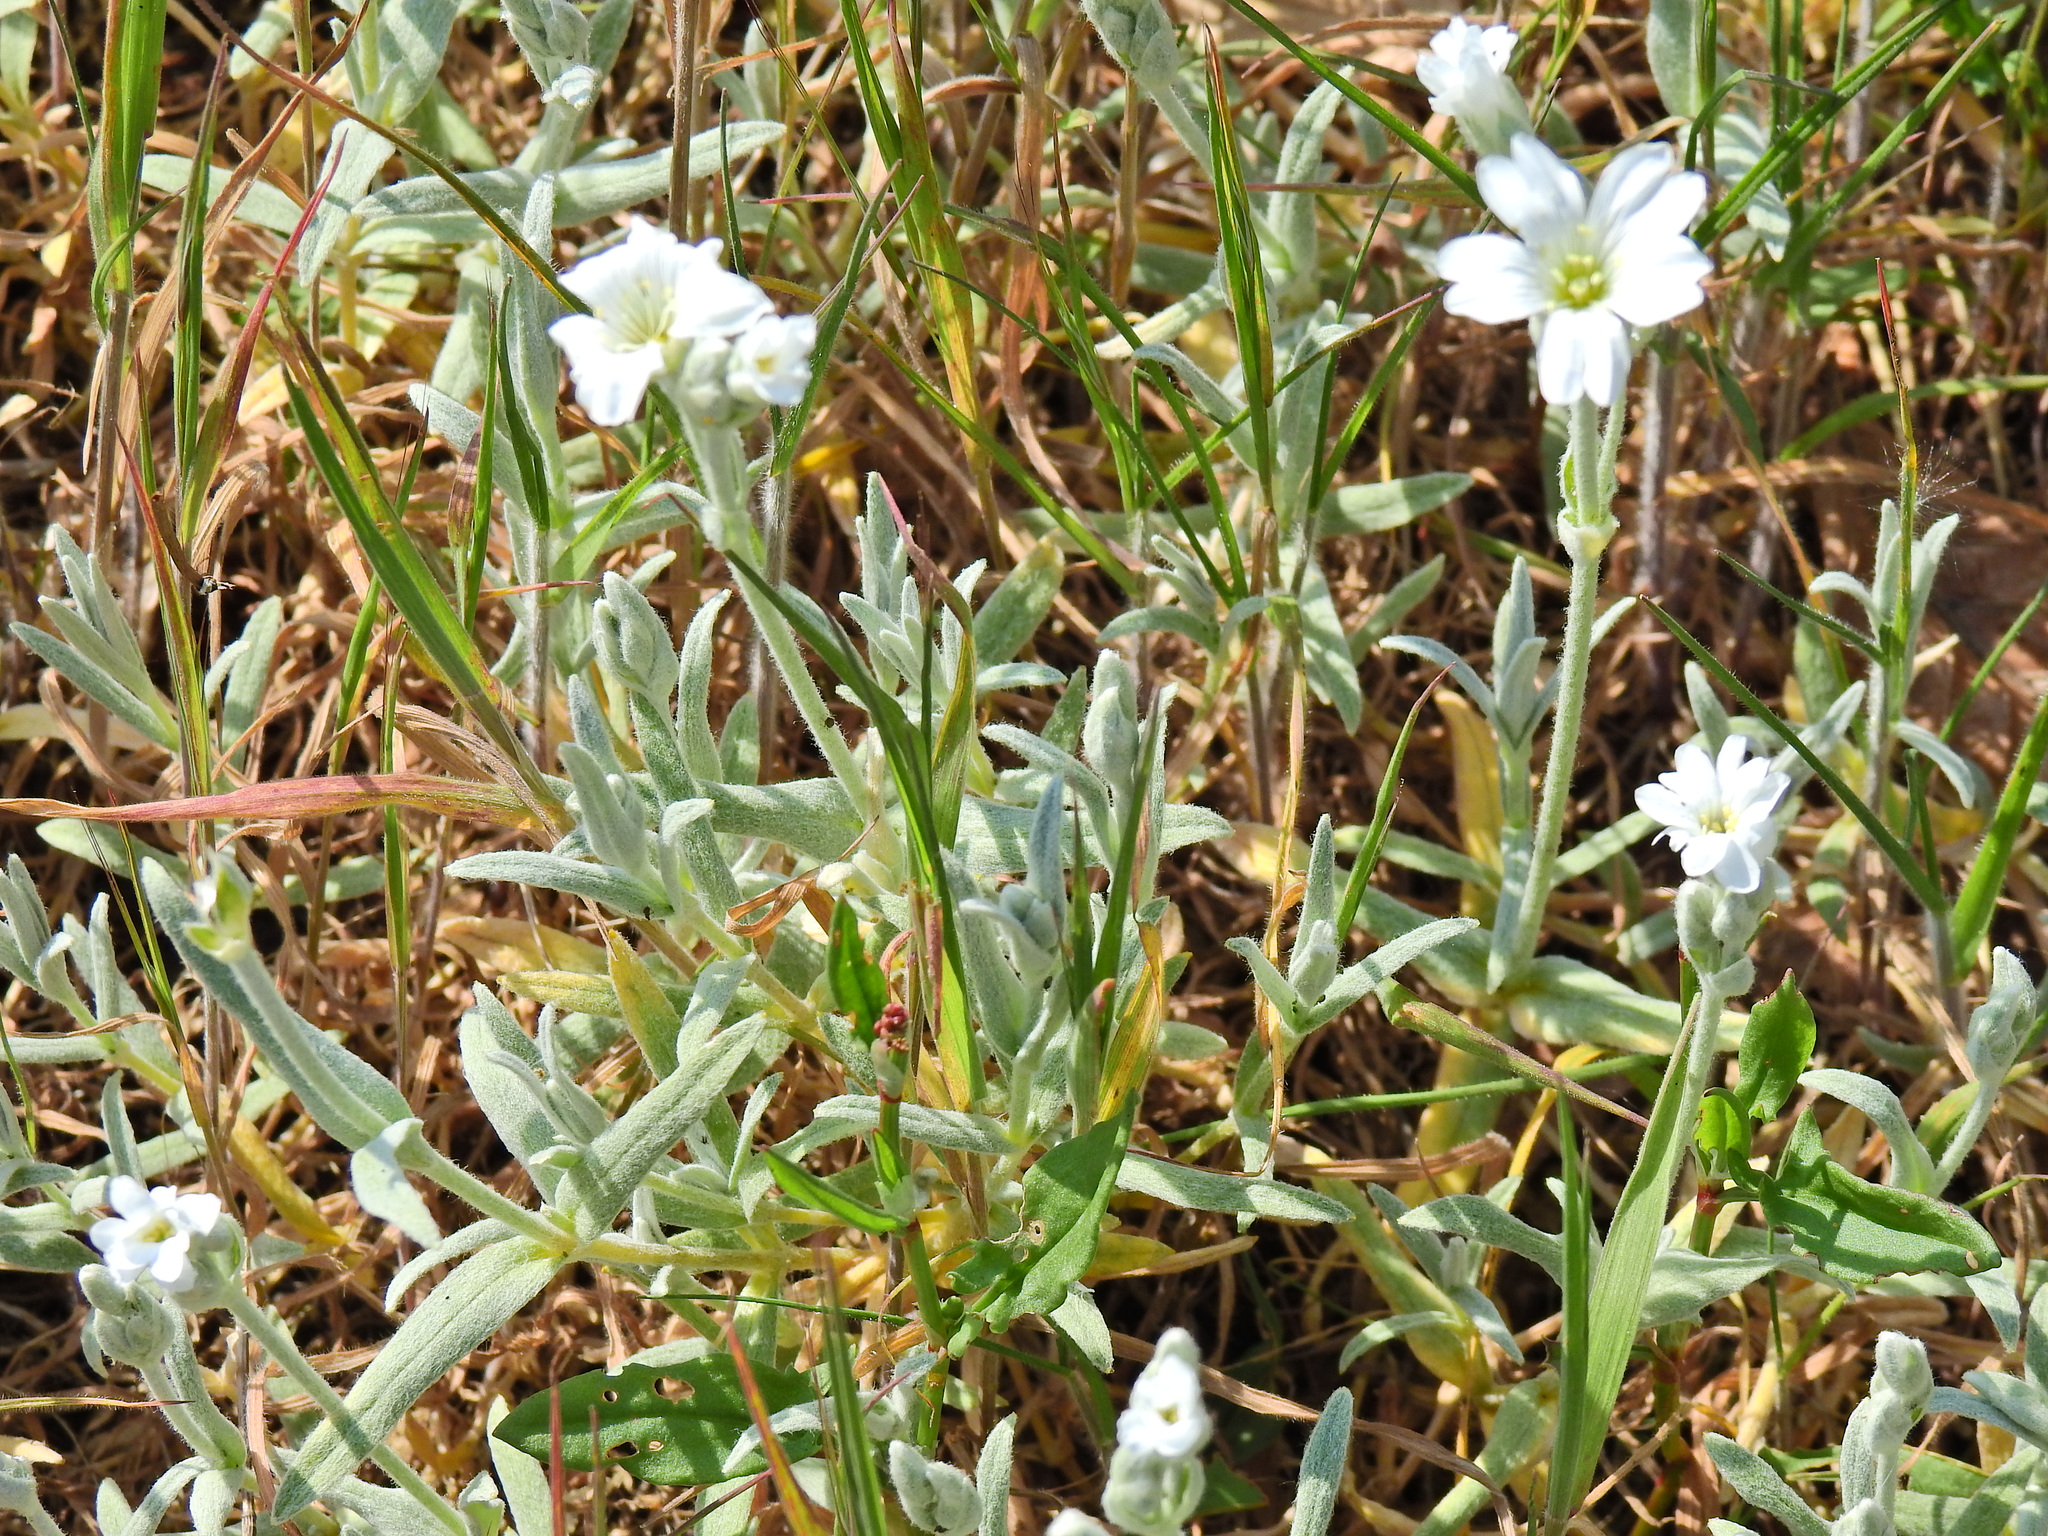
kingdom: Plantae
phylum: Tracheophyta
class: Magnoliopsida
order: Caryophyllales
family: Caryophyllaceae
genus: Cerastium
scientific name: Cerastium tomentosum
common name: Snow-in-summer
